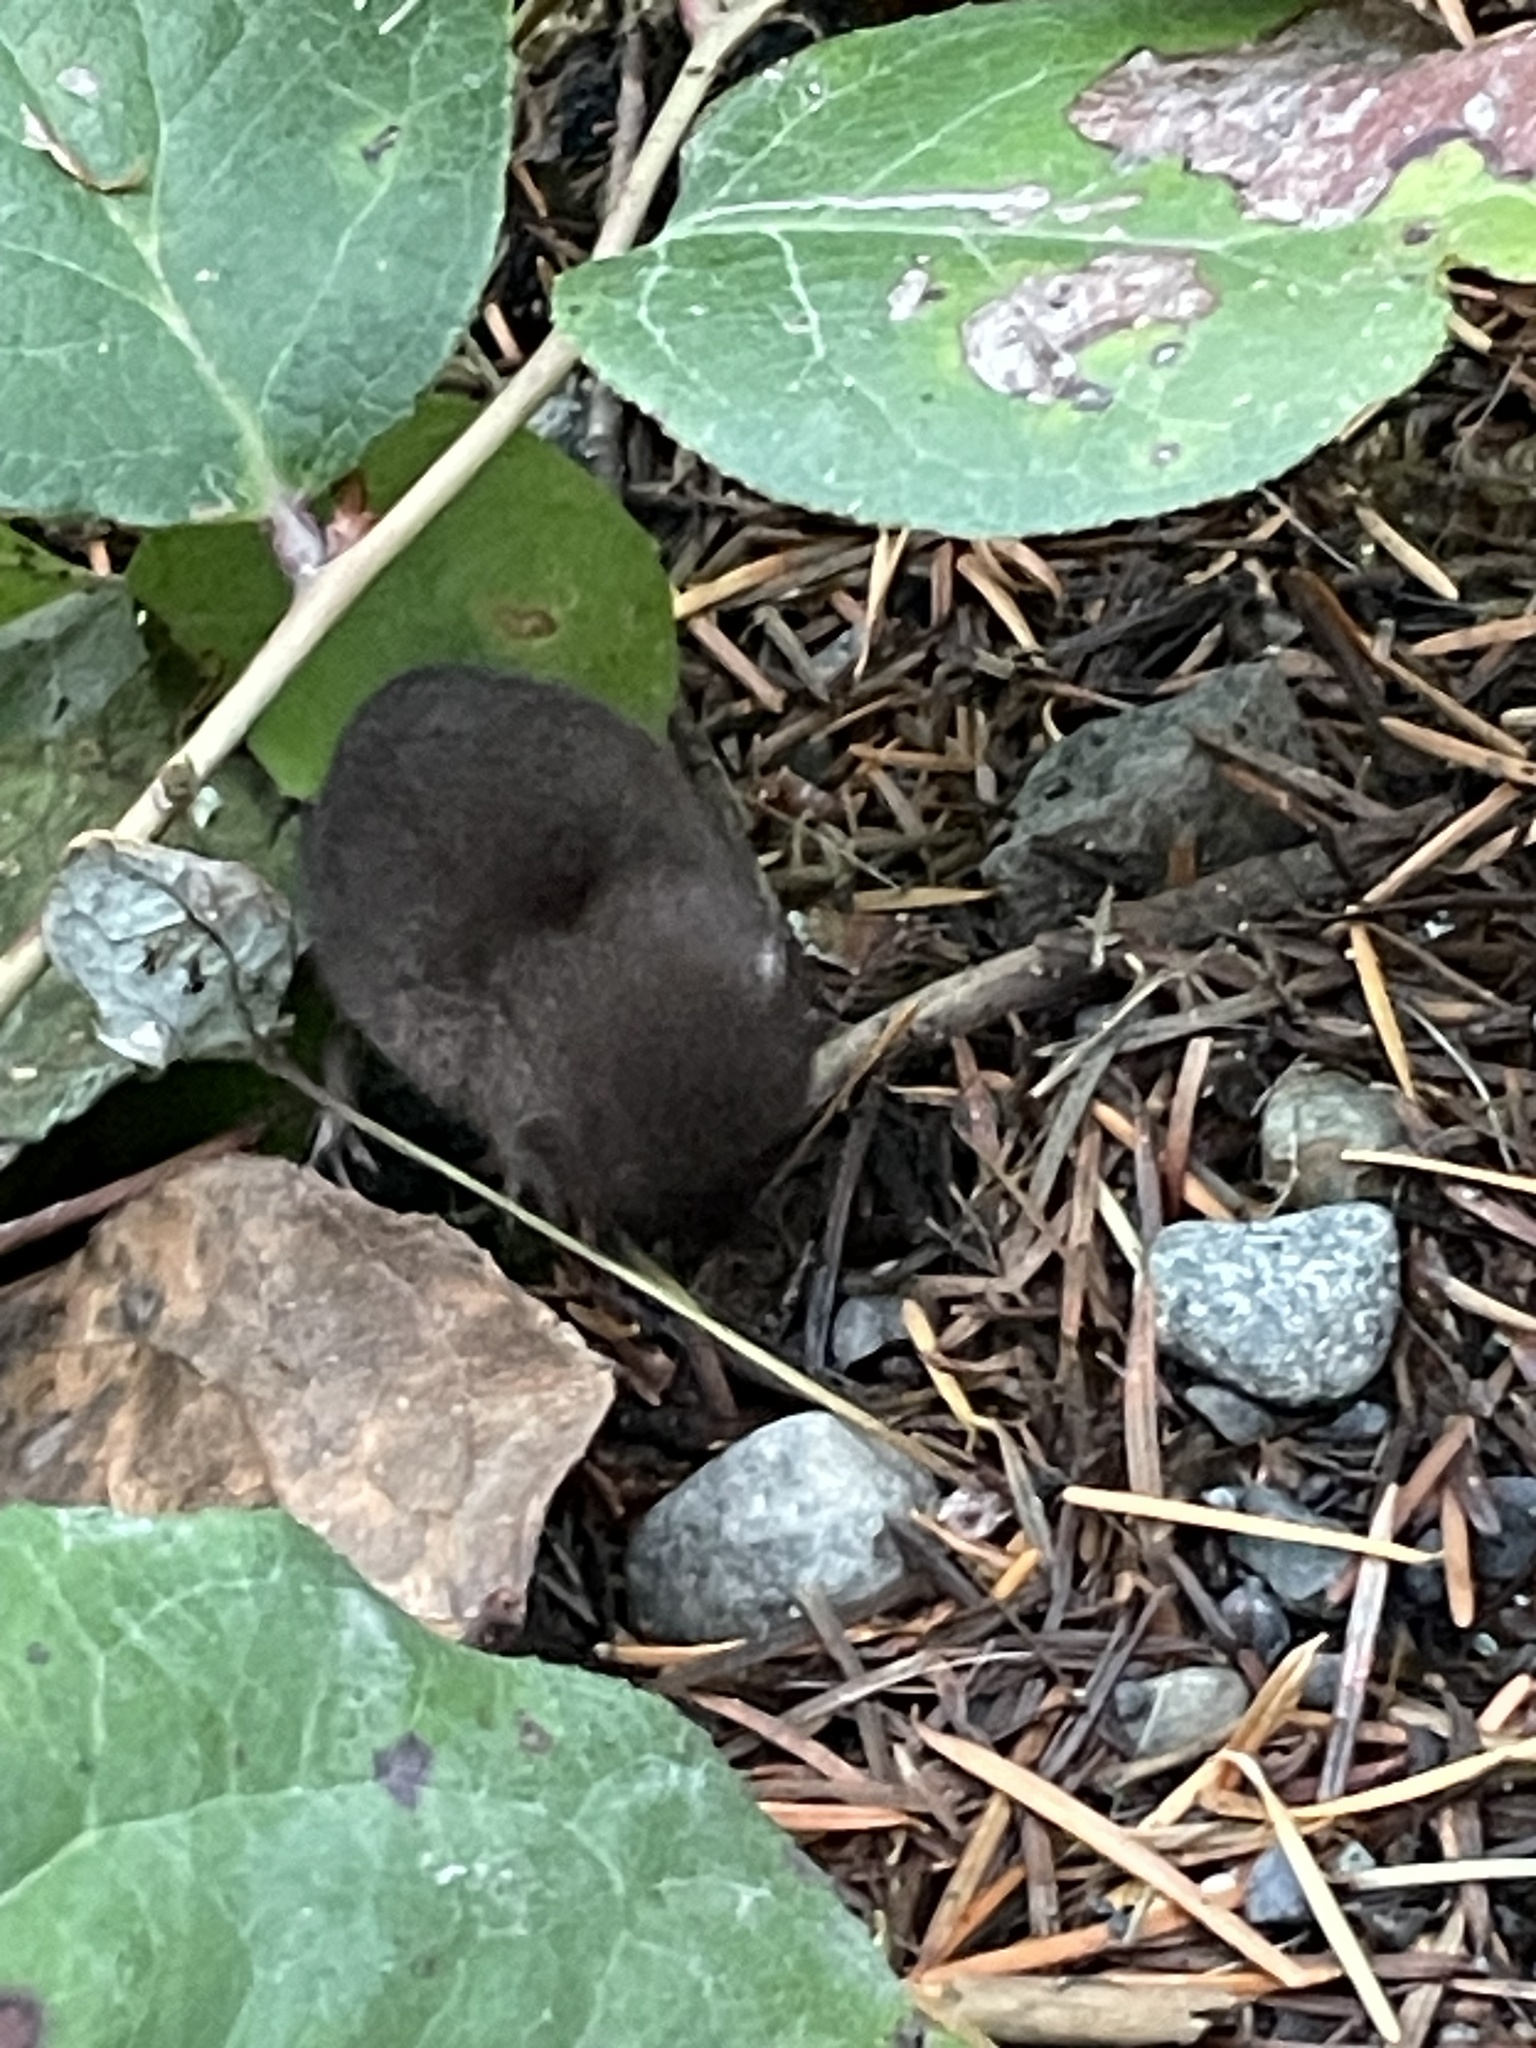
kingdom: Animalia
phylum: Chordata
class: Mammalia
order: Rodentia
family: Cricetidae
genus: Microtus
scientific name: Microtus townsendii
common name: Townsend's vole
